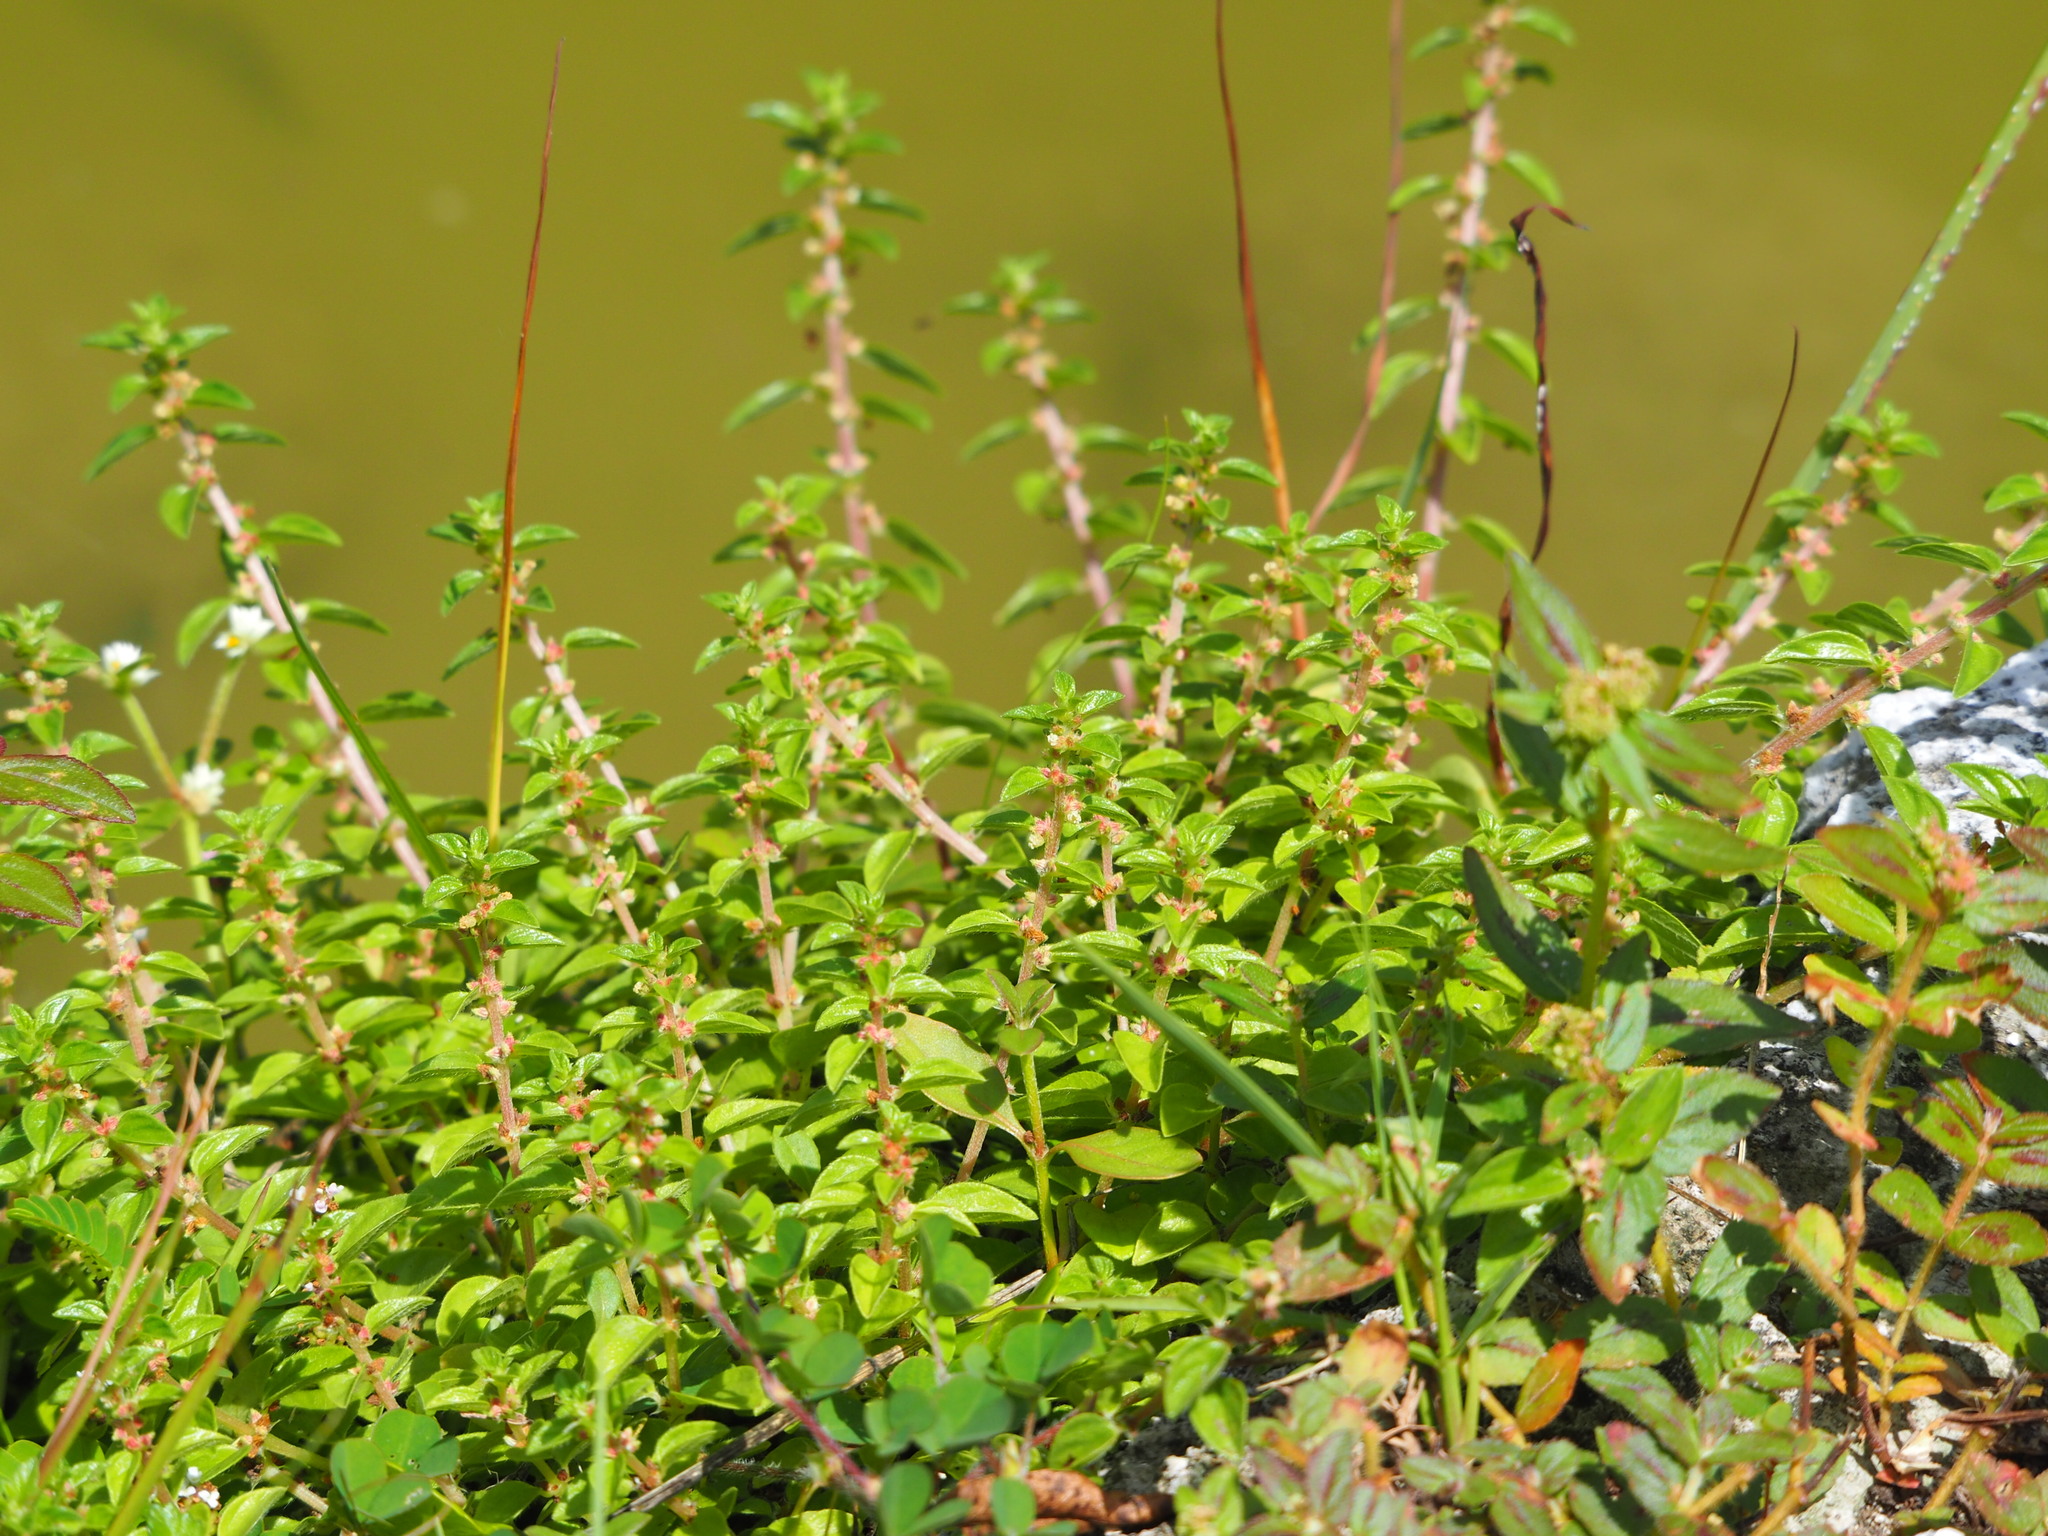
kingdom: Plantae
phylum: Tracheophyta
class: Magnoliopsida
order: Rosales
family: Urticaceae
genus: Gonostegia
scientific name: Gonostegia parvifolia
